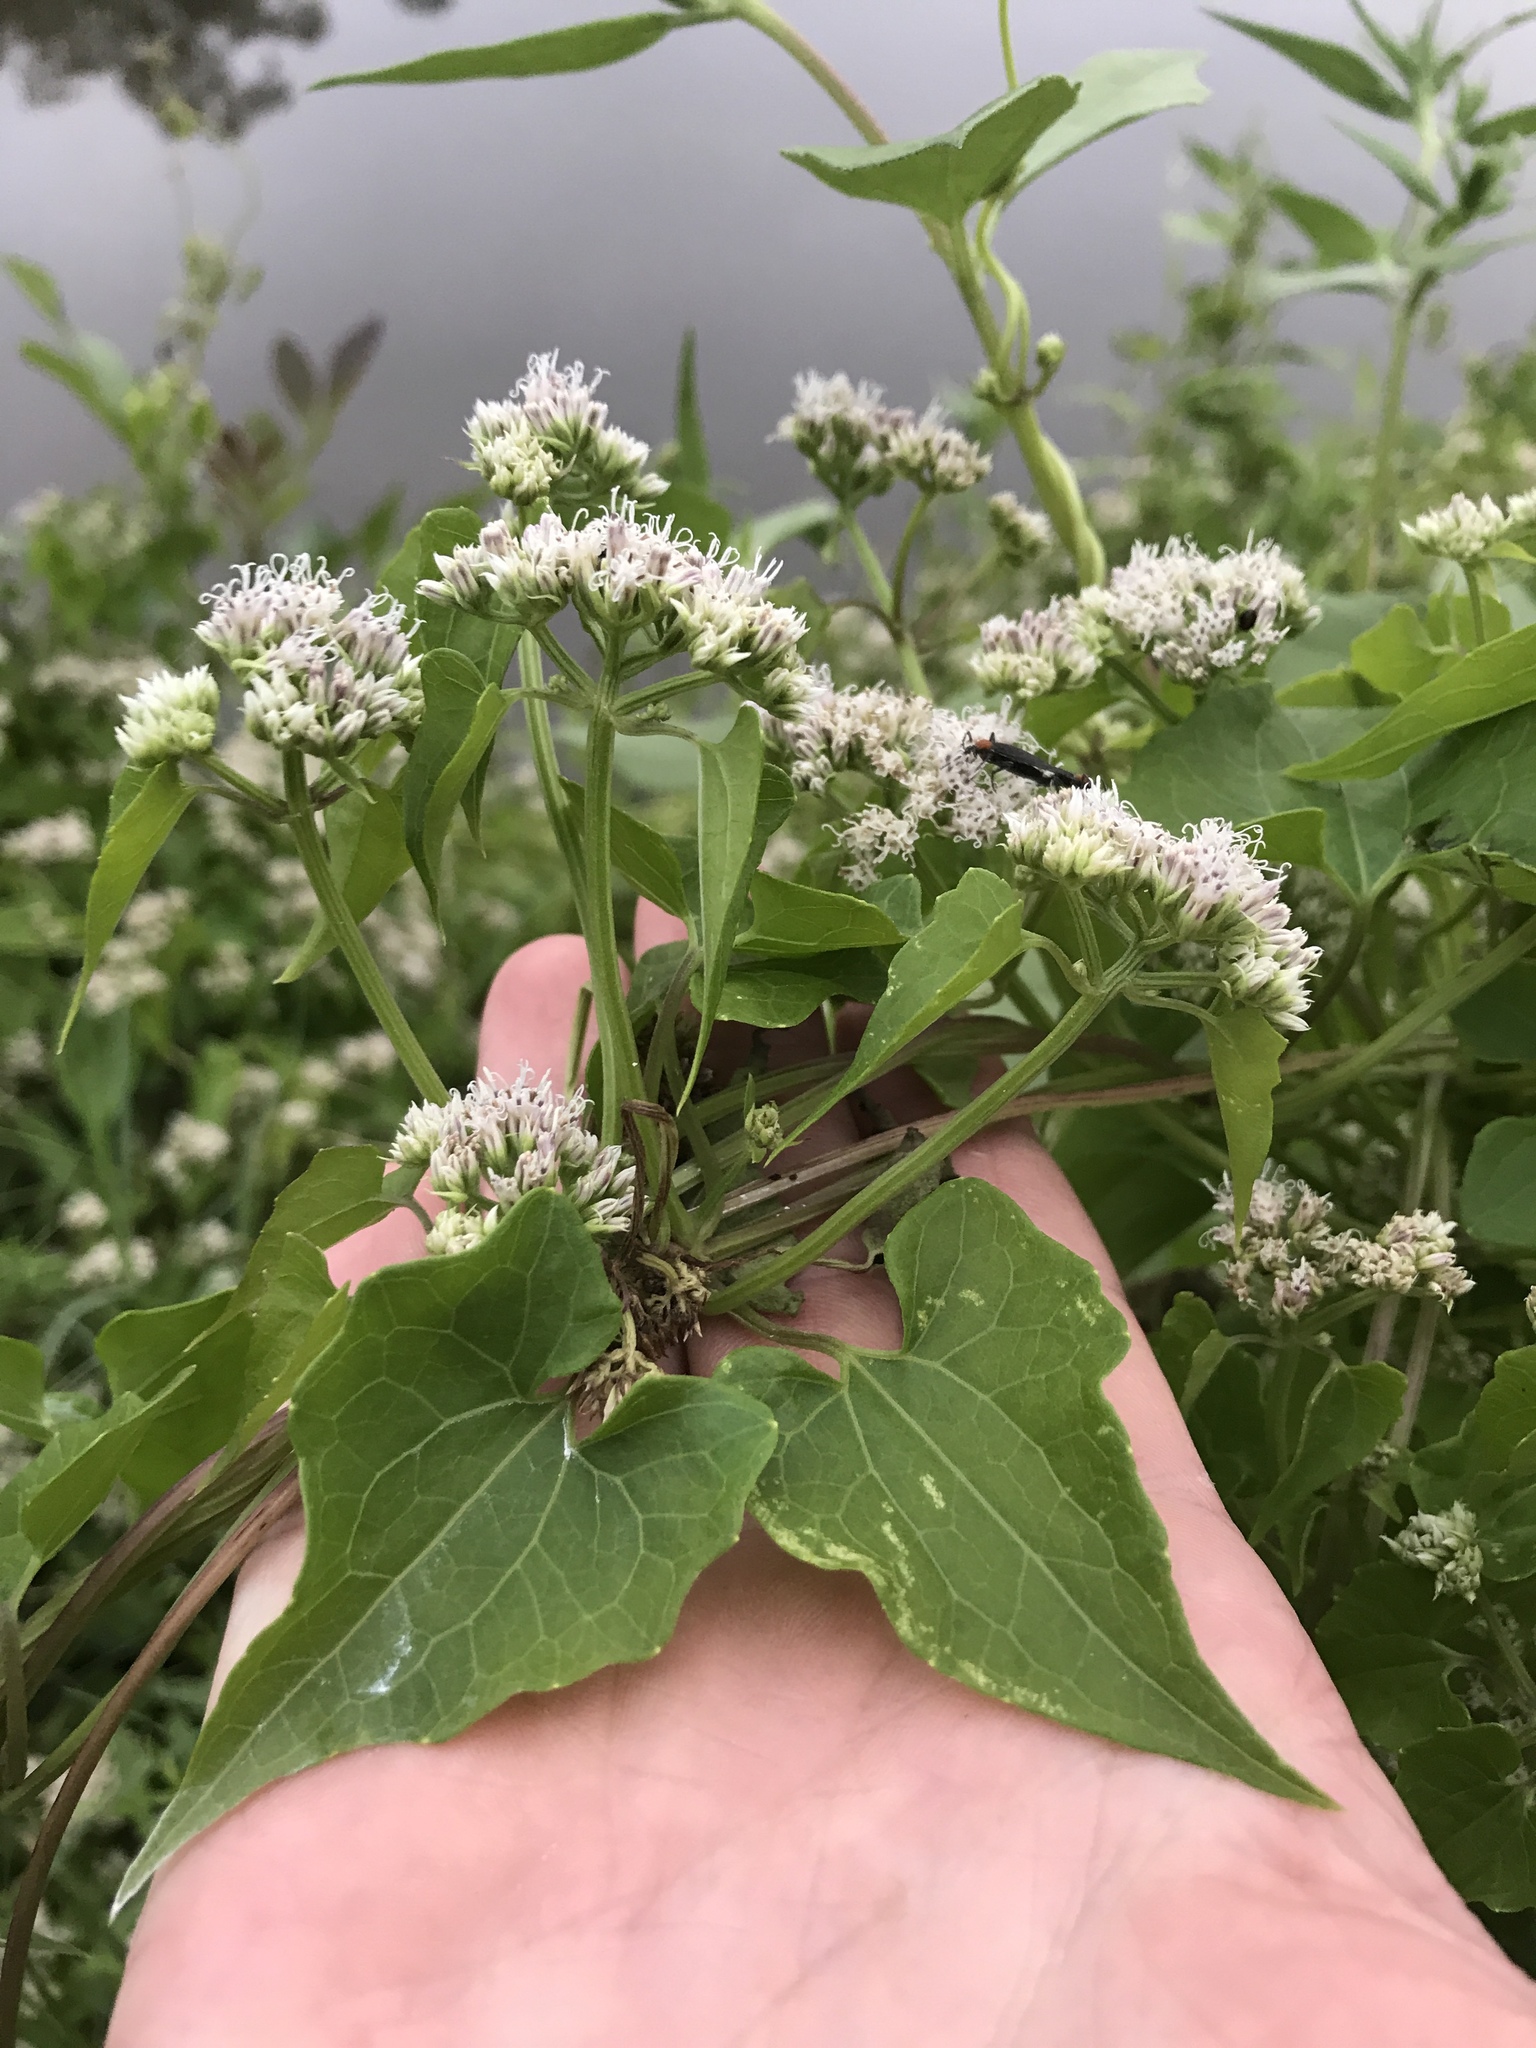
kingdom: Plantae
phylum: Tracheophyta
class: Magnoliopsida
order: Asterales
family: Asteraceae
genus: Mikania
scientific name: Mikania scandens
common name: Climbing hempvine
